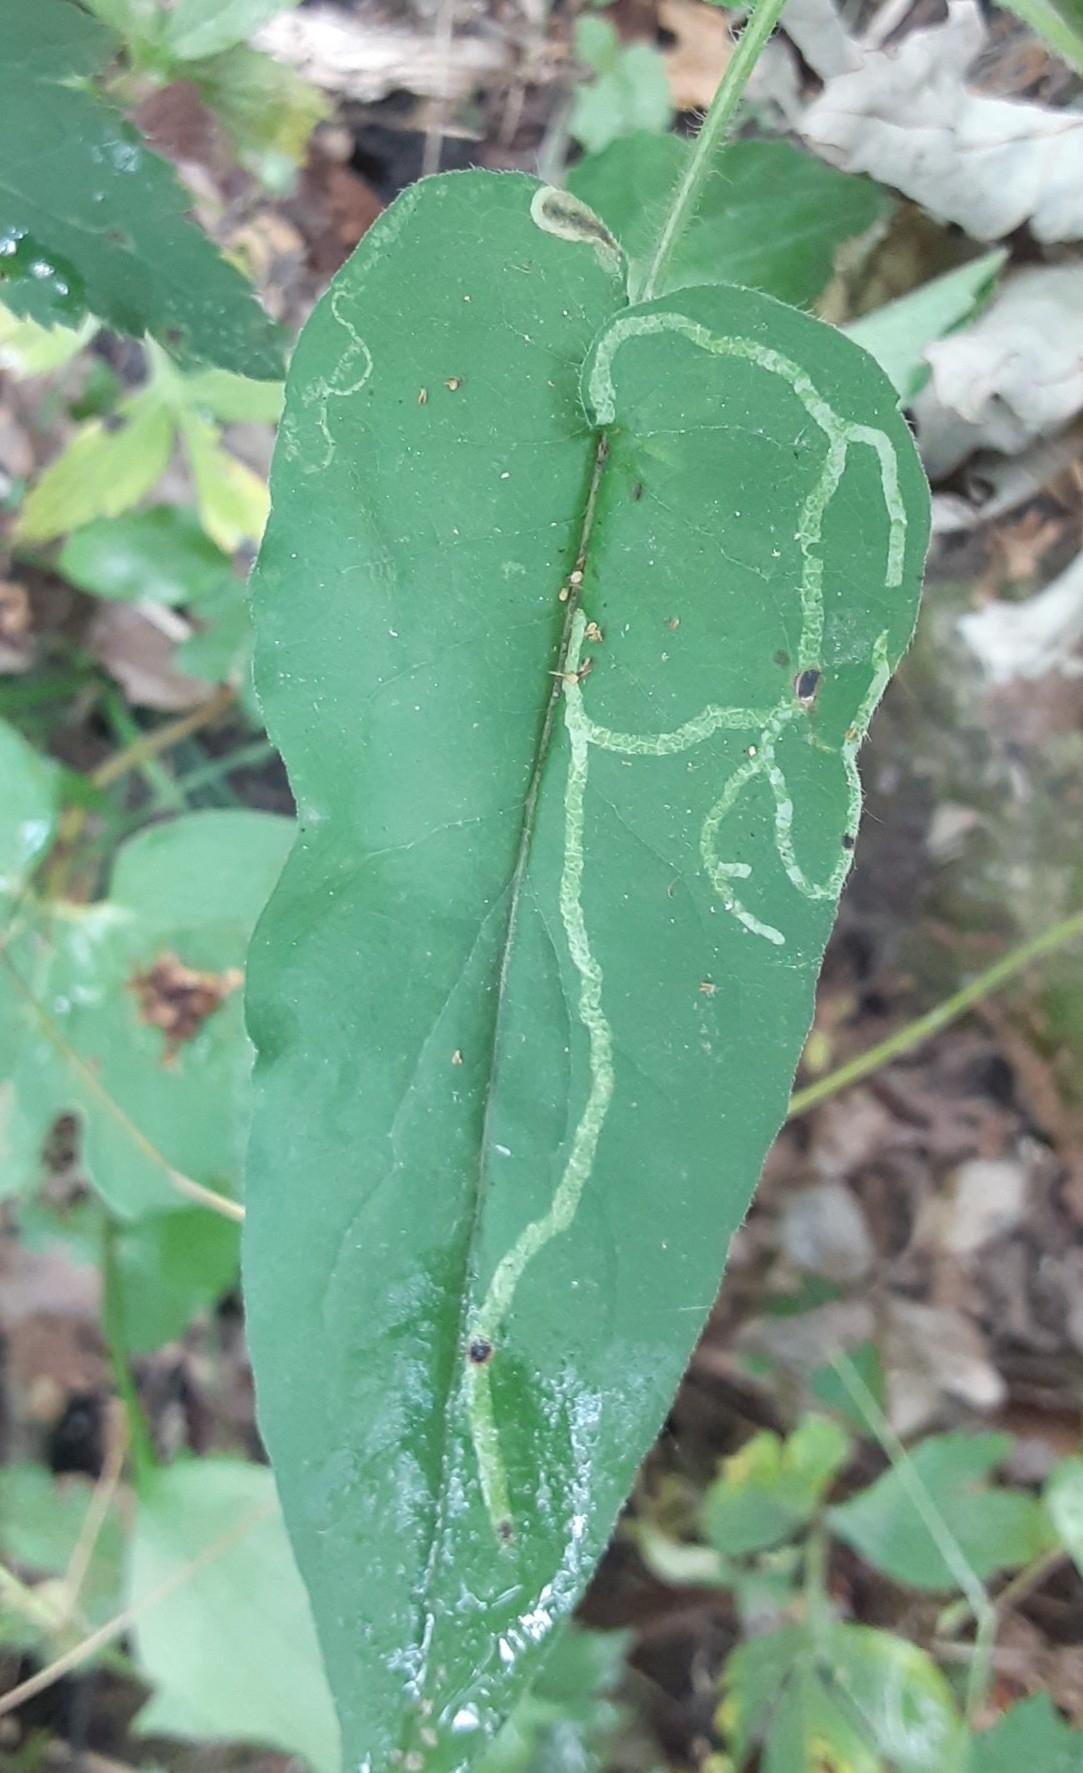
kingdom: Animalia
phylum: Arthropoda
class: Insecta
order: Diptera
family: Agromyzidae
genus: Ophiomyia
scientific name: Ophiomyia parda
